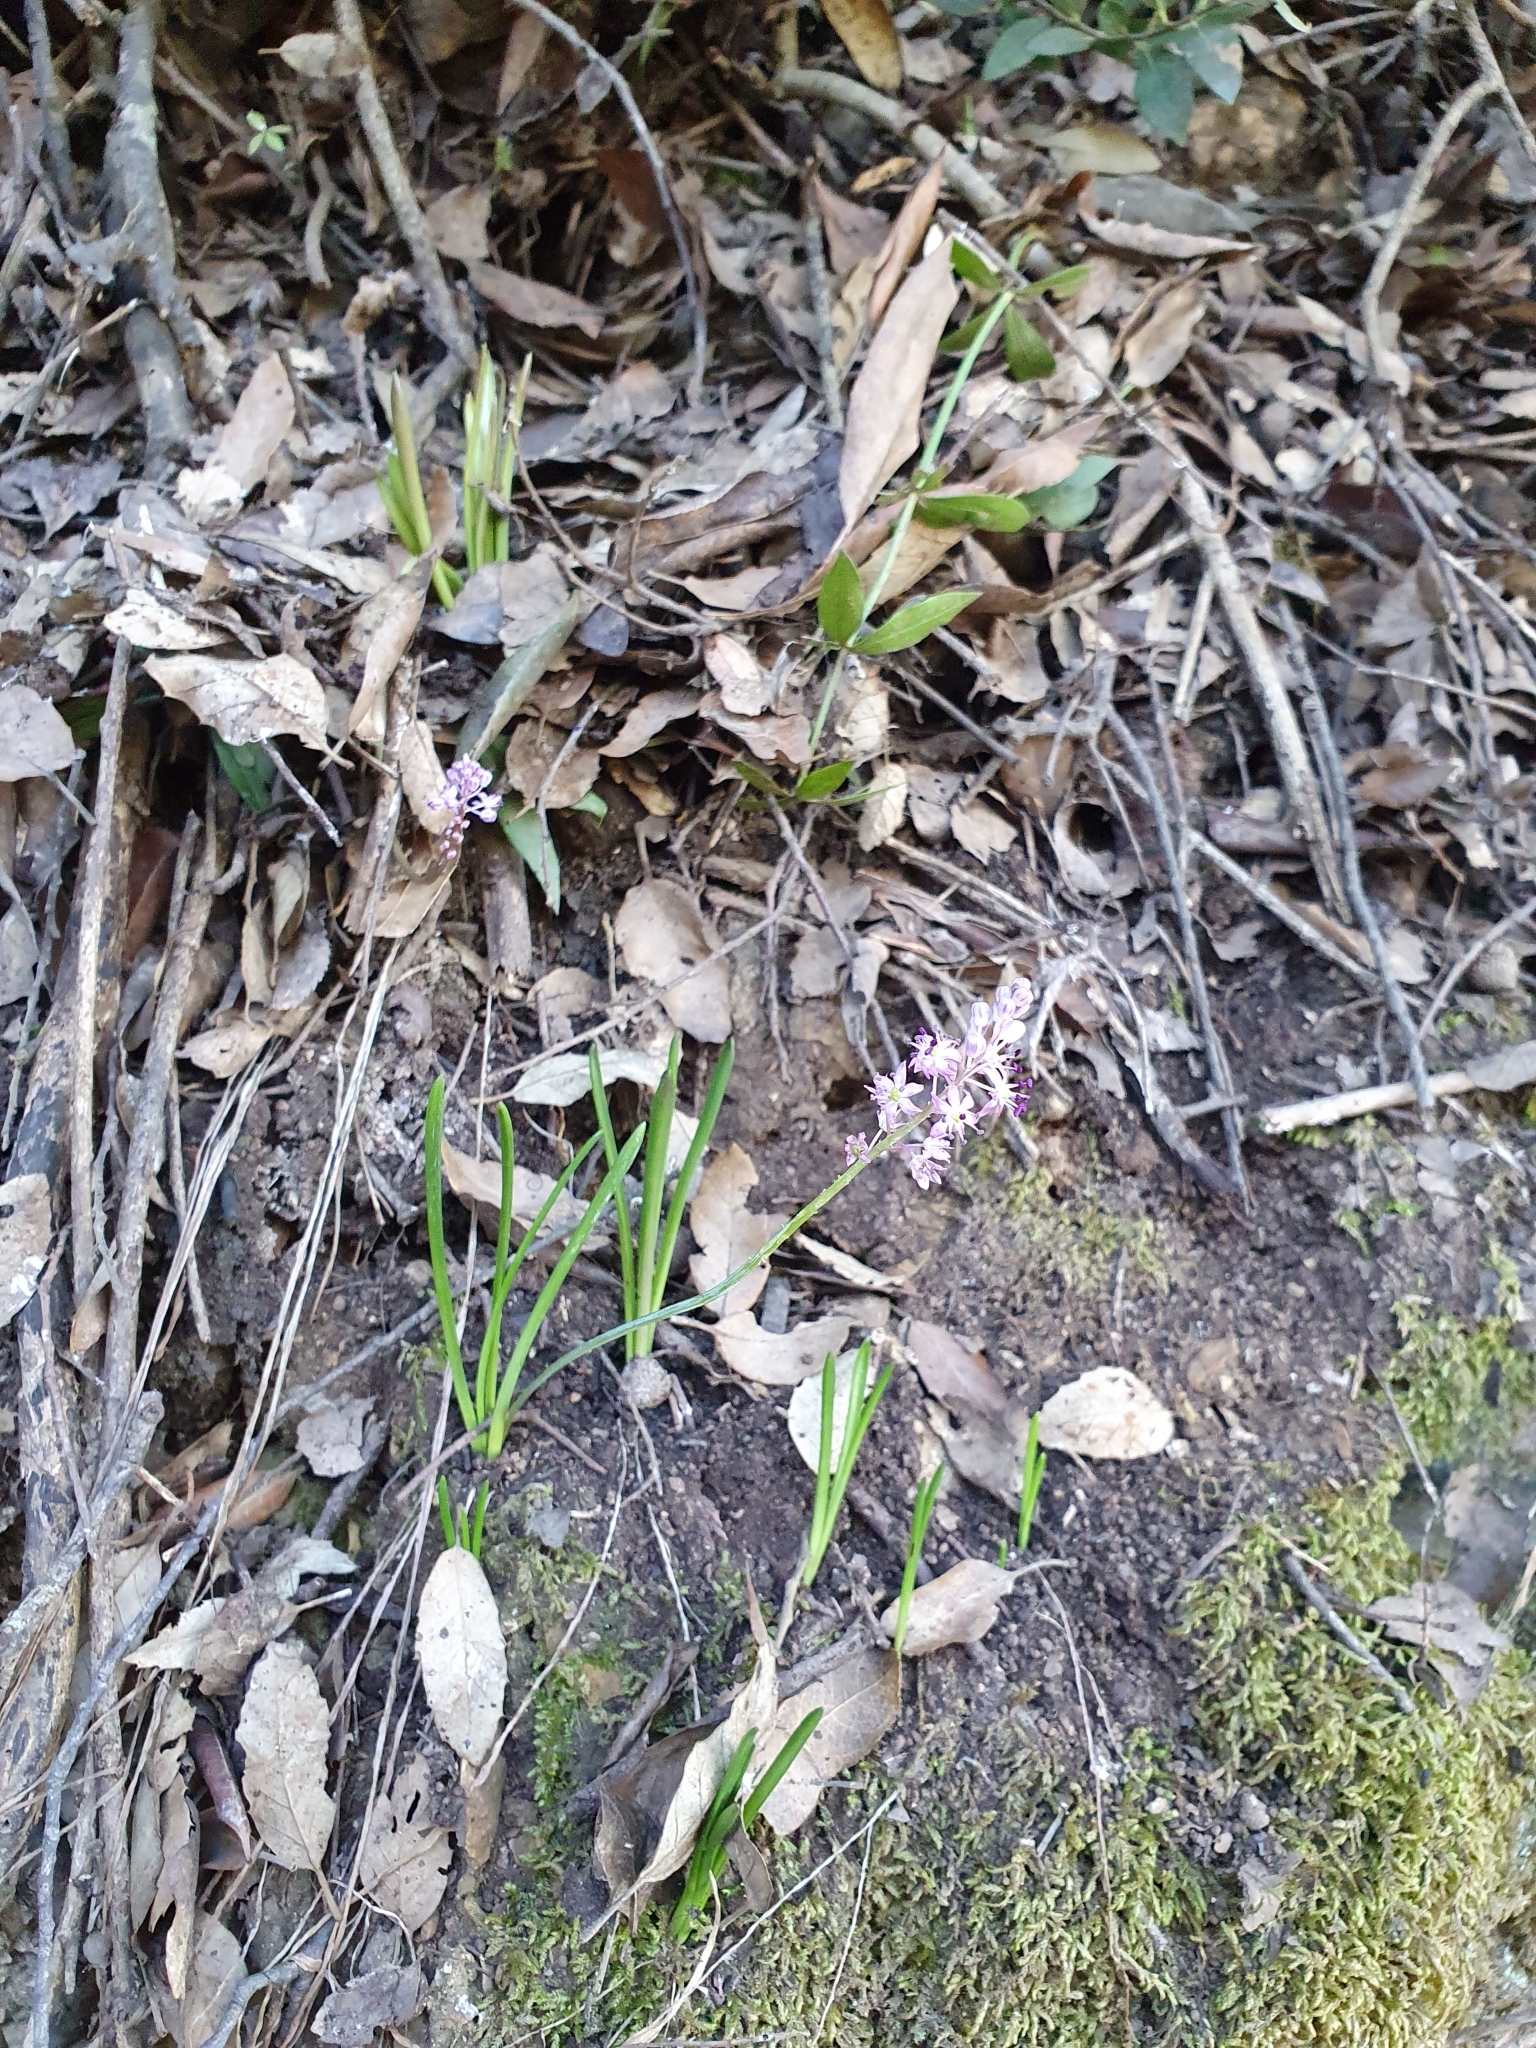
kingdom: Plantae
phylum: Tracheophyta
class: Liliopsida
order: Asparagales
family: Asparagaceae
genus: Barnardia
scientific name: Barnardia numidica
